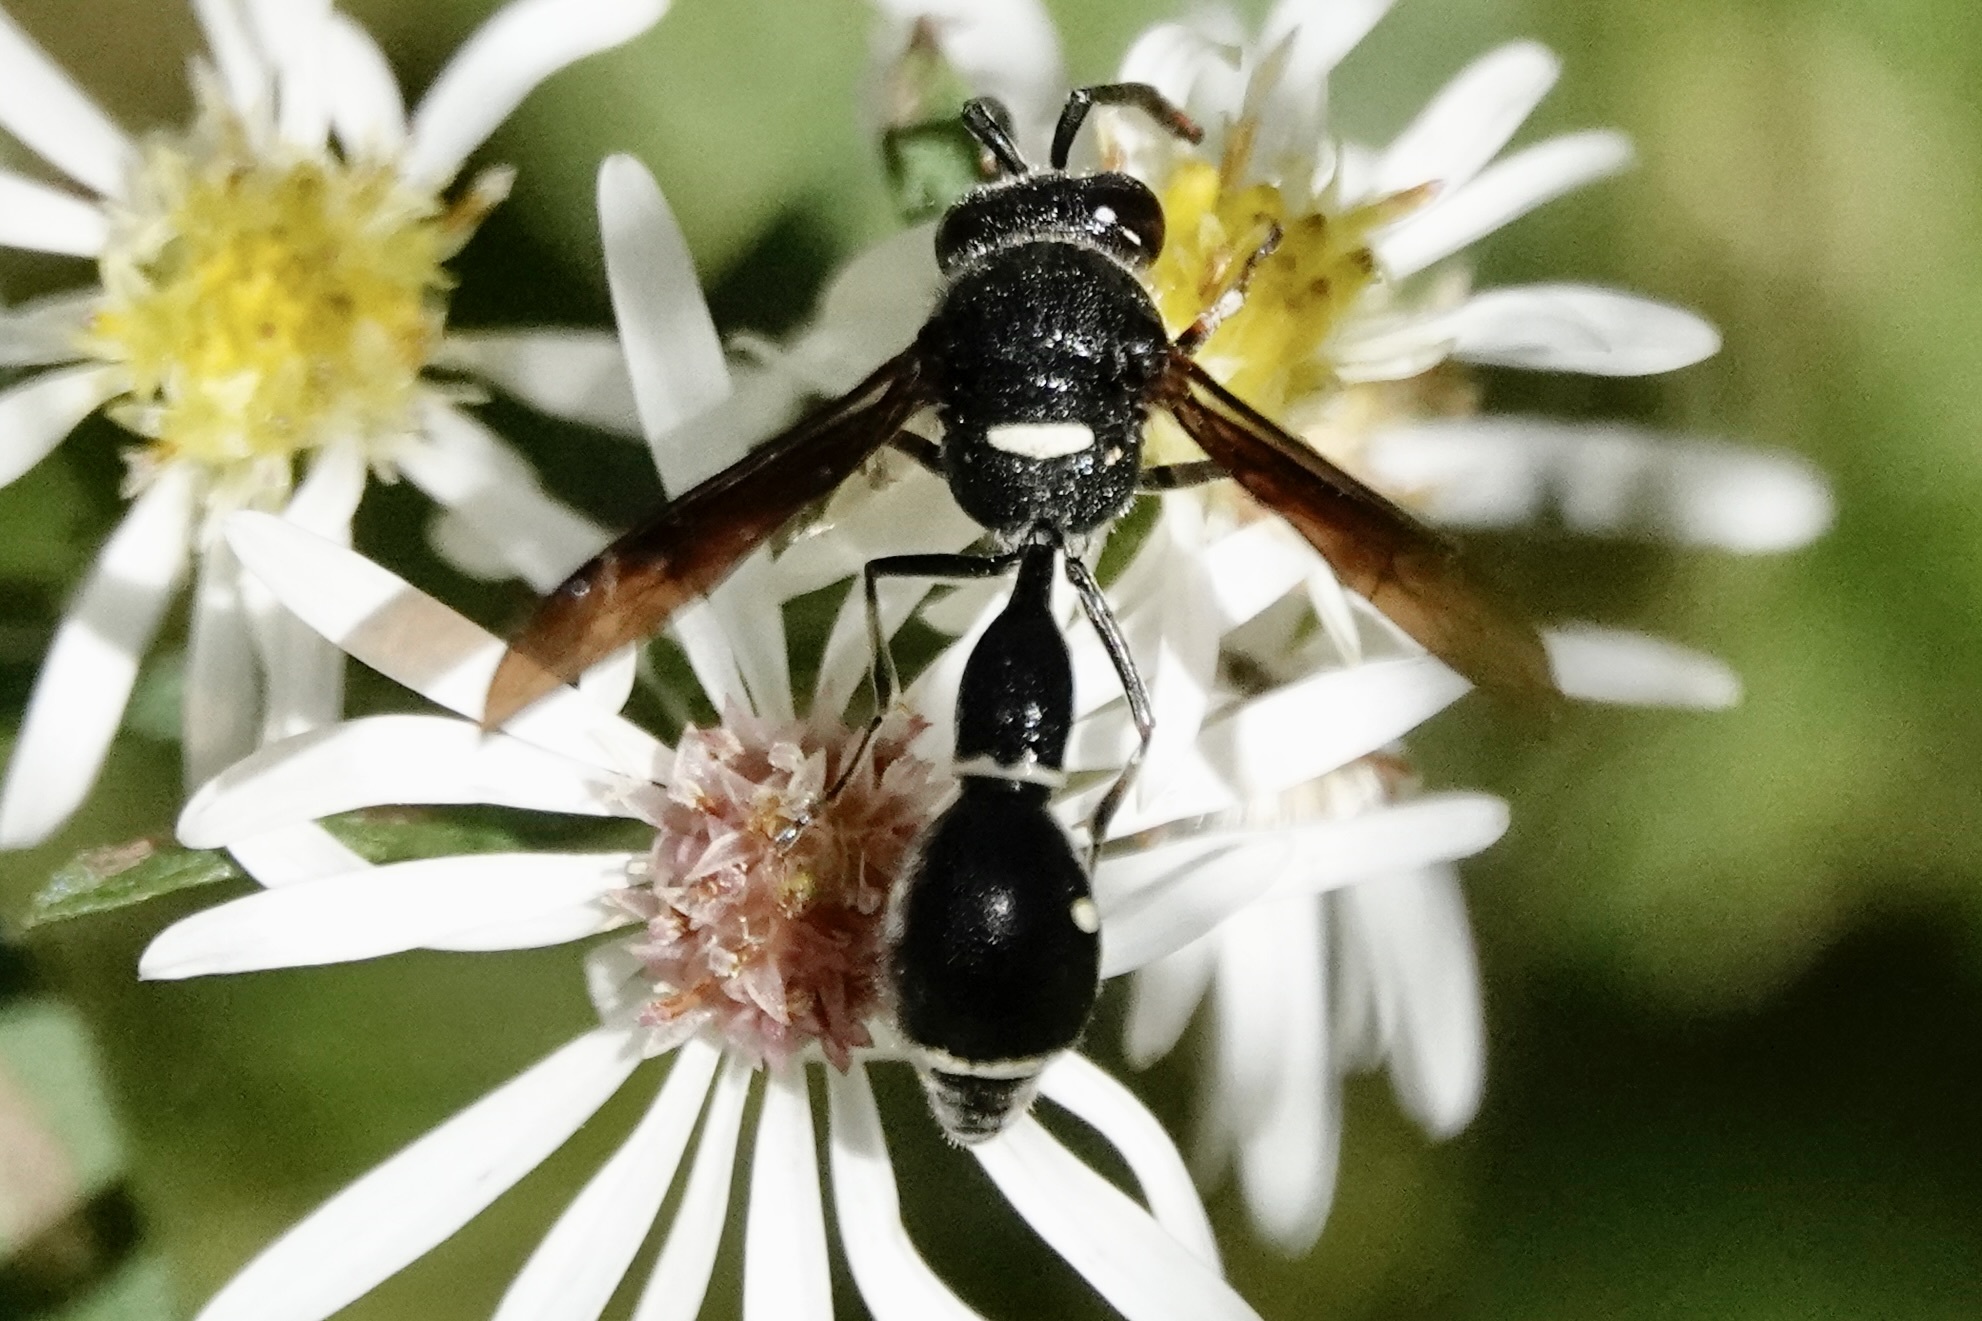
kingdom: Animalia
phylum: Arthropoda
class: Insecta
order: Hymenoptera
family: Vespidae
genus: Eumenes
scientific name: Eumenes fraternus
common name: Fraternal potter wasp
